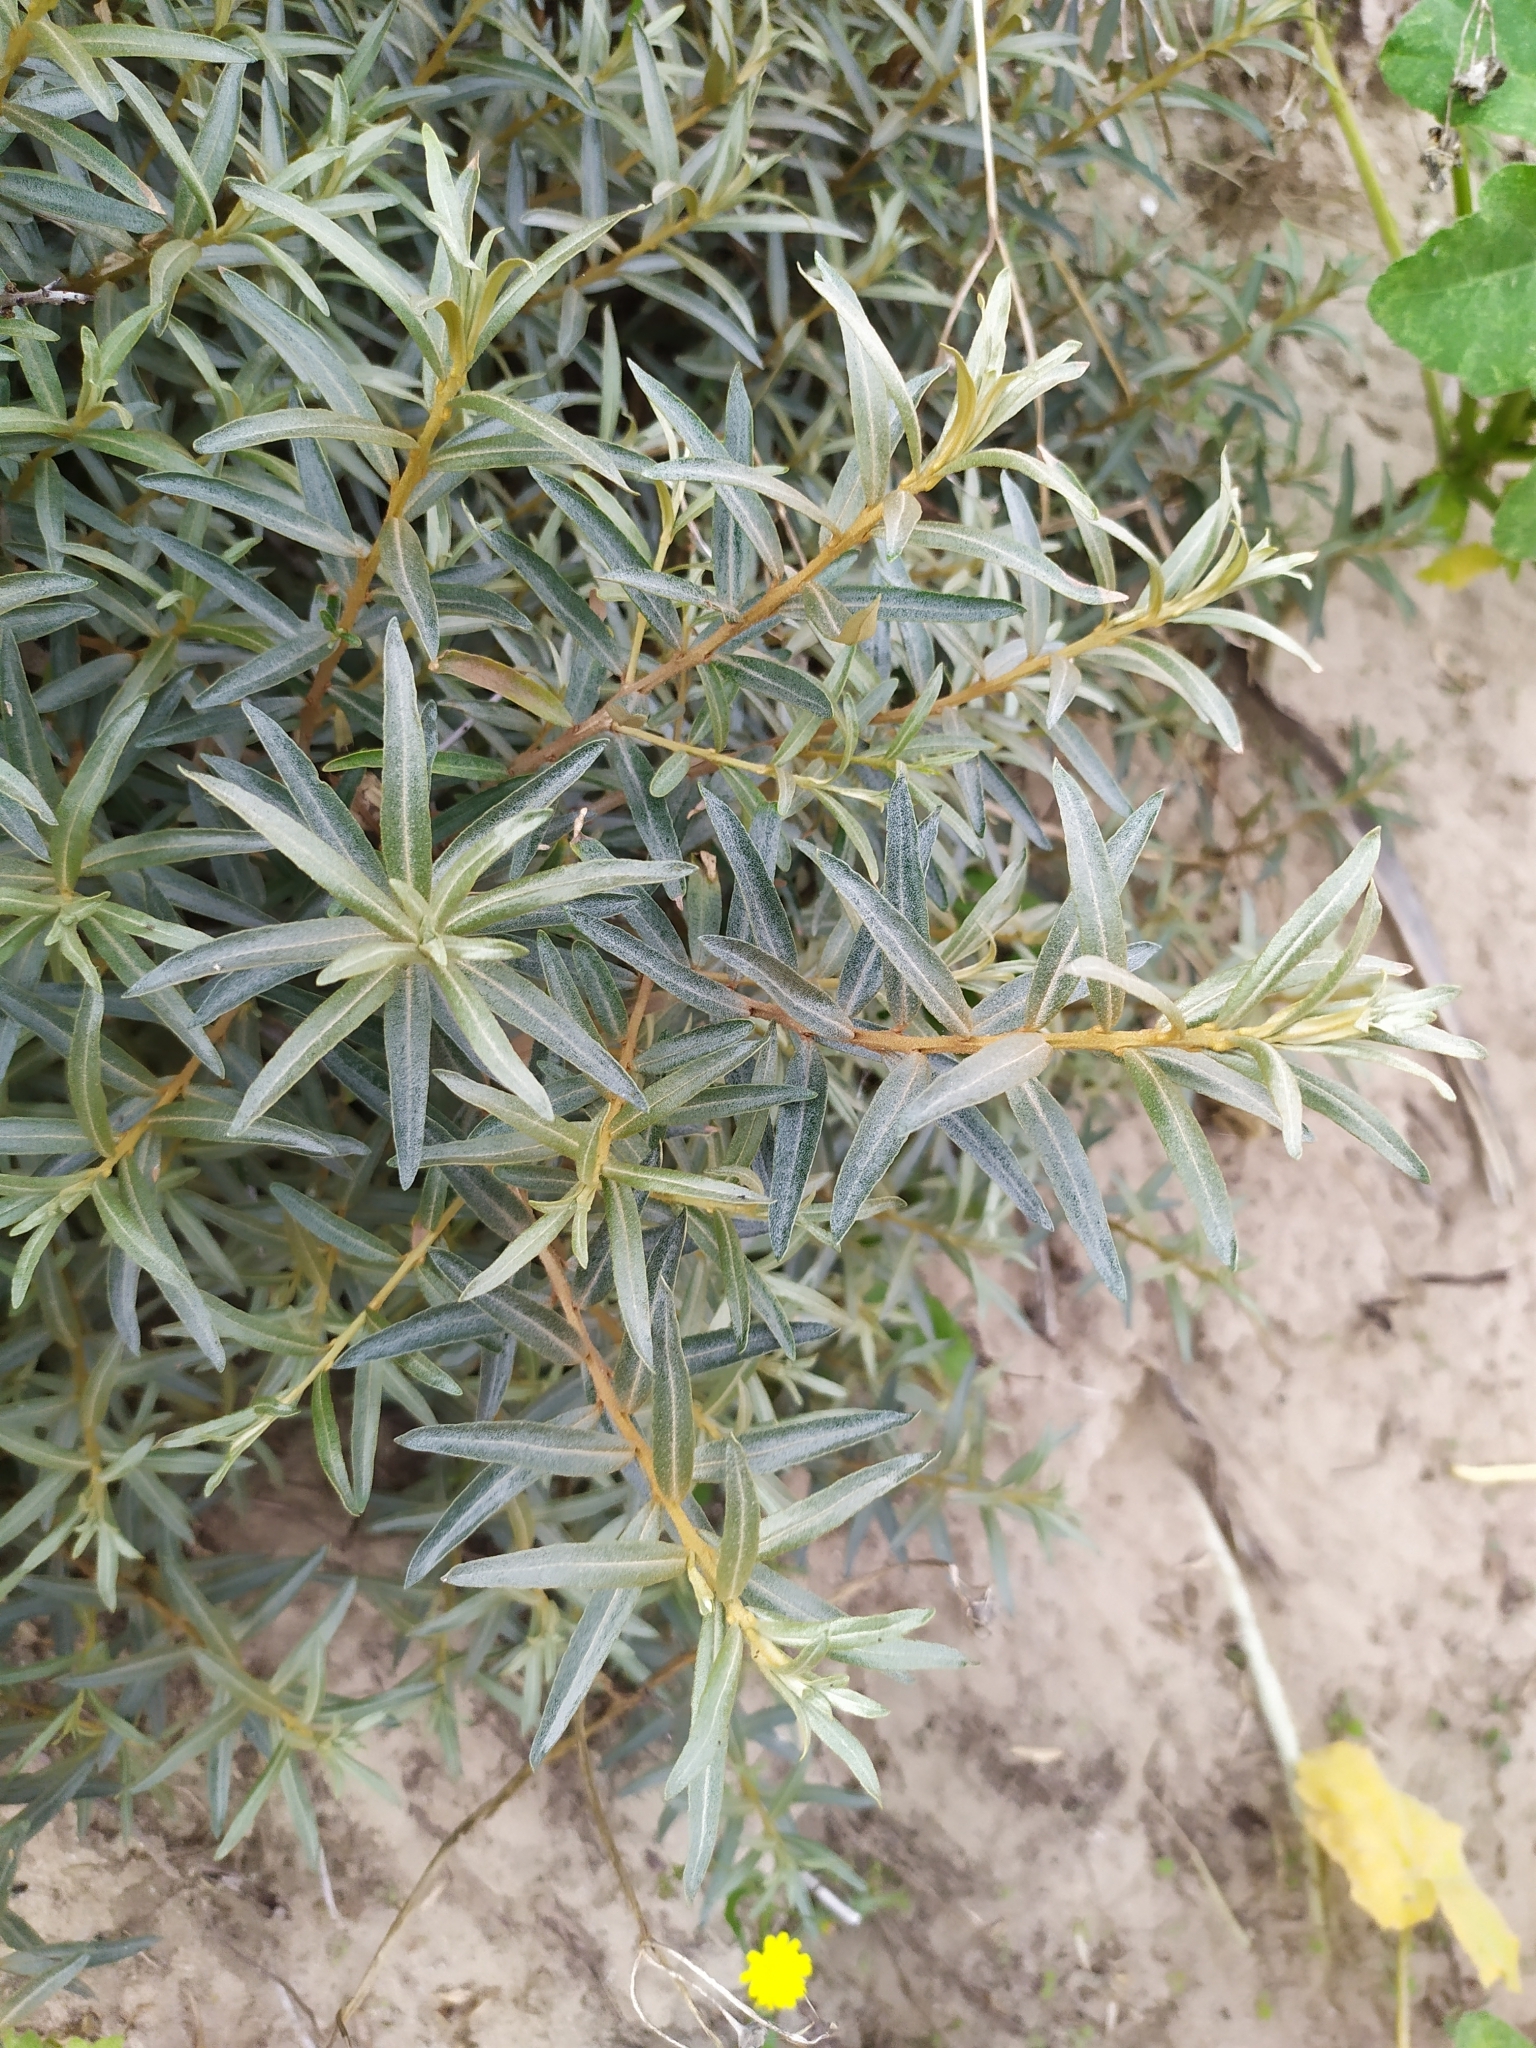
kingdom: Plantae
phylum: Tracheophyta
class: Magnoliopsida
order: Rosales
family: Elaeagnaceae
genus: Hippophae
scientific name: Hippophae rhamnoides
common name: Sea-buckthorn
